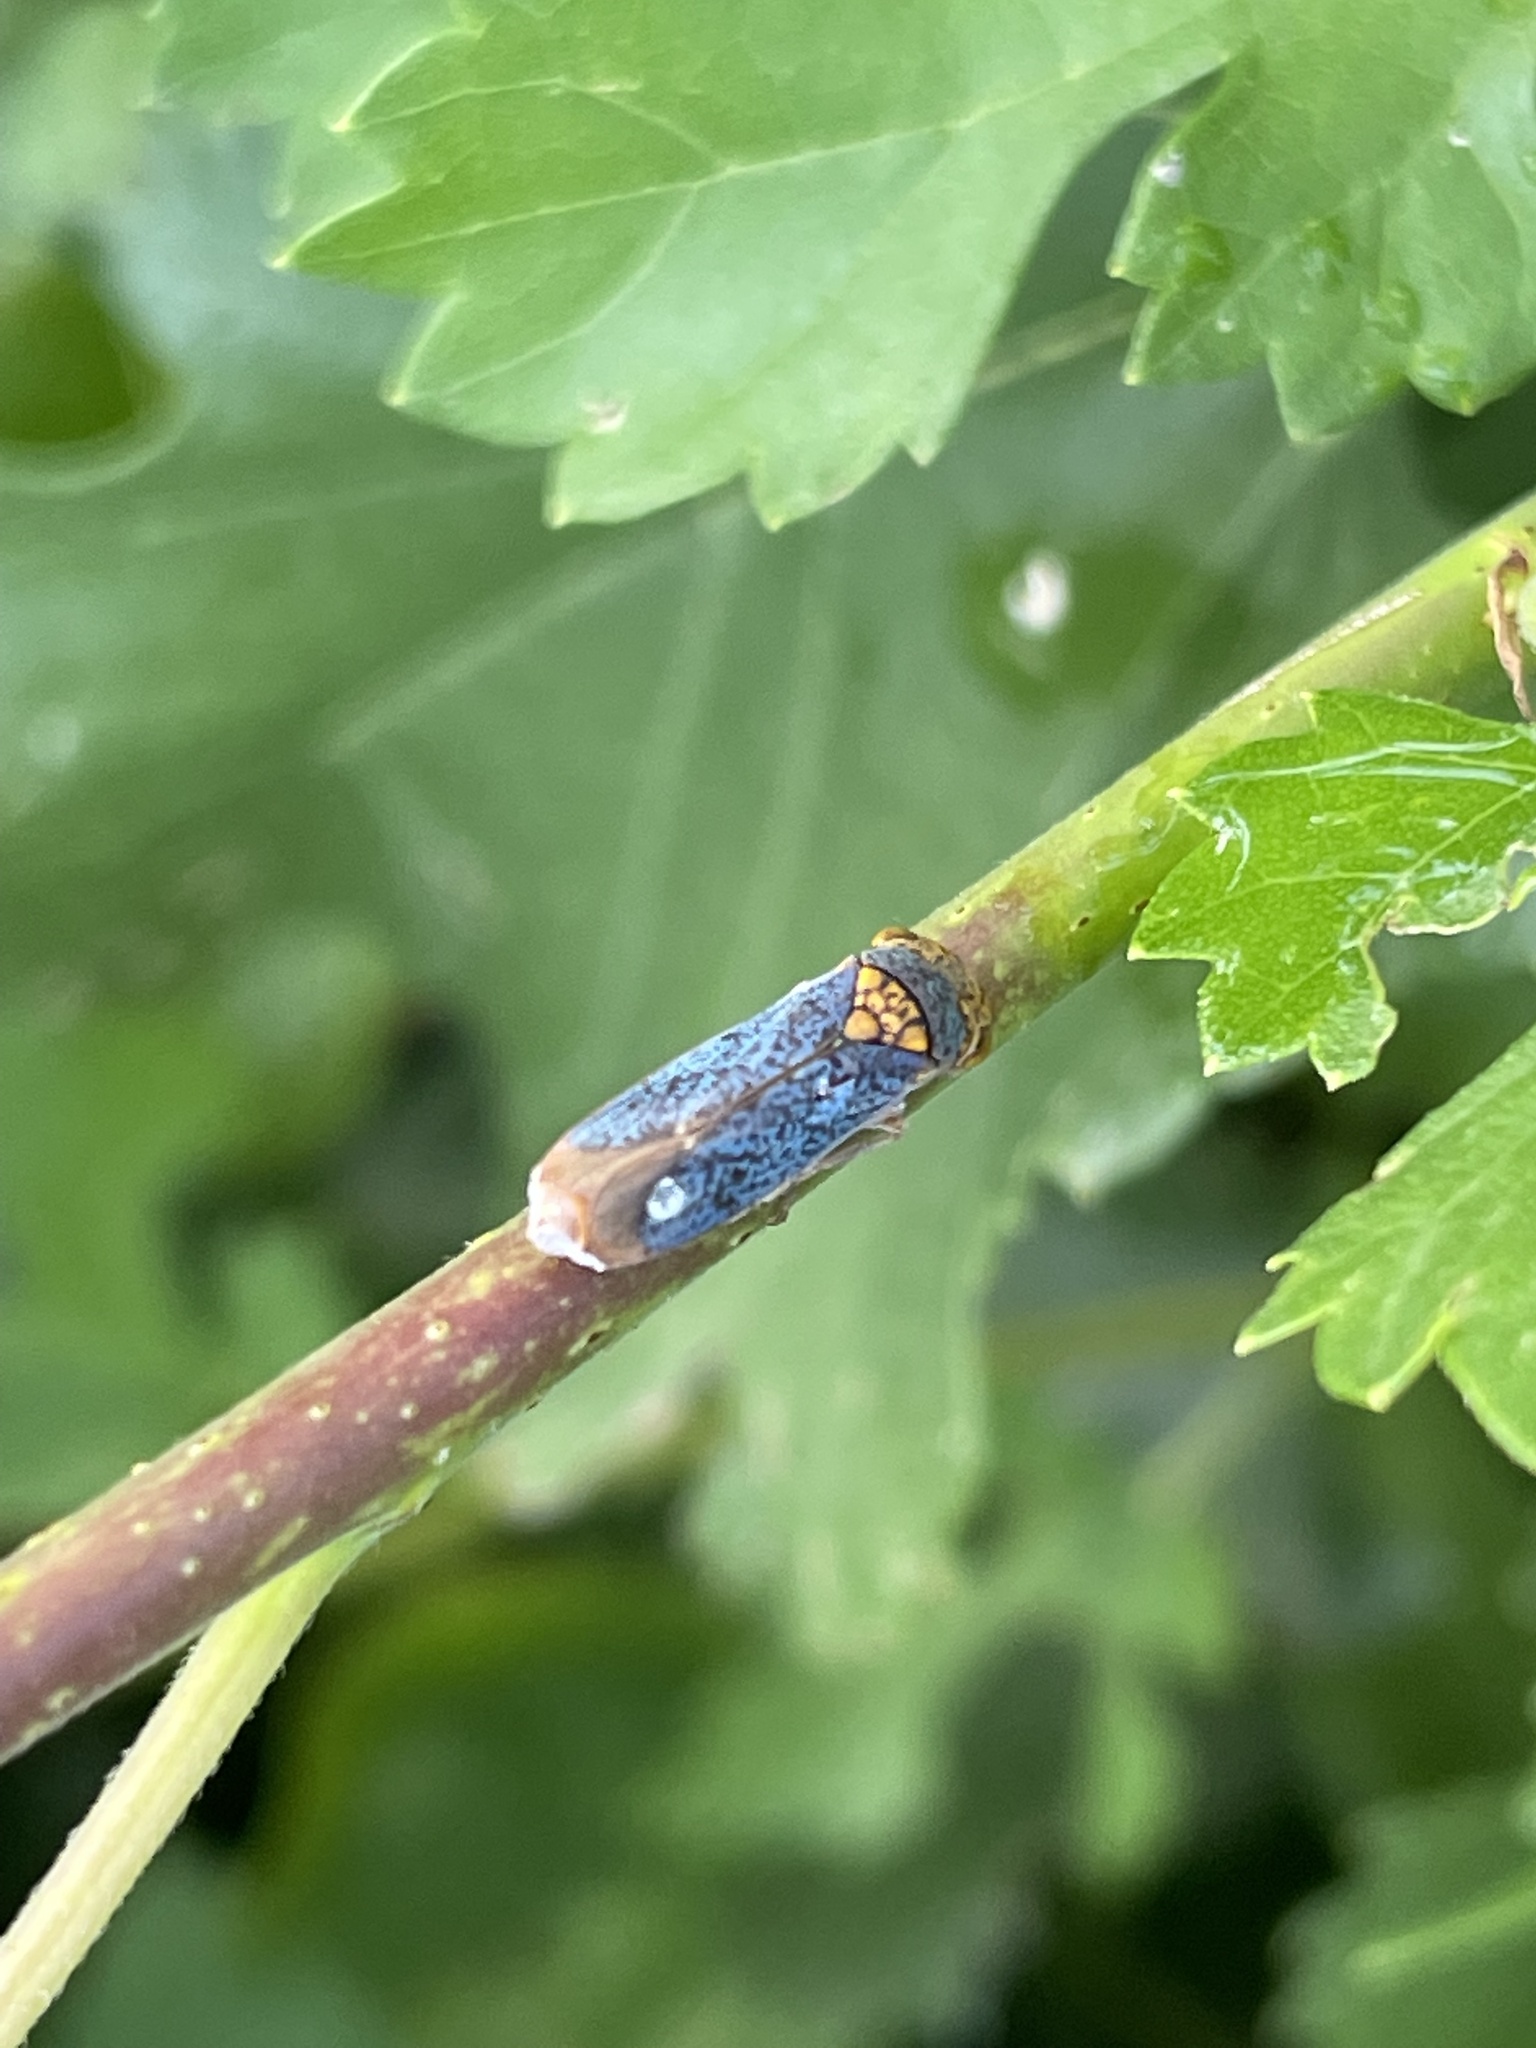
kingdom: Animalia
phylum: Arthropoda
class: Insecta
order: Hemiptera
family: Cicadellidae
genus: Oncometopia
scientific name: Oncometopia orbona
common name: Broad-headed sharpshooter
